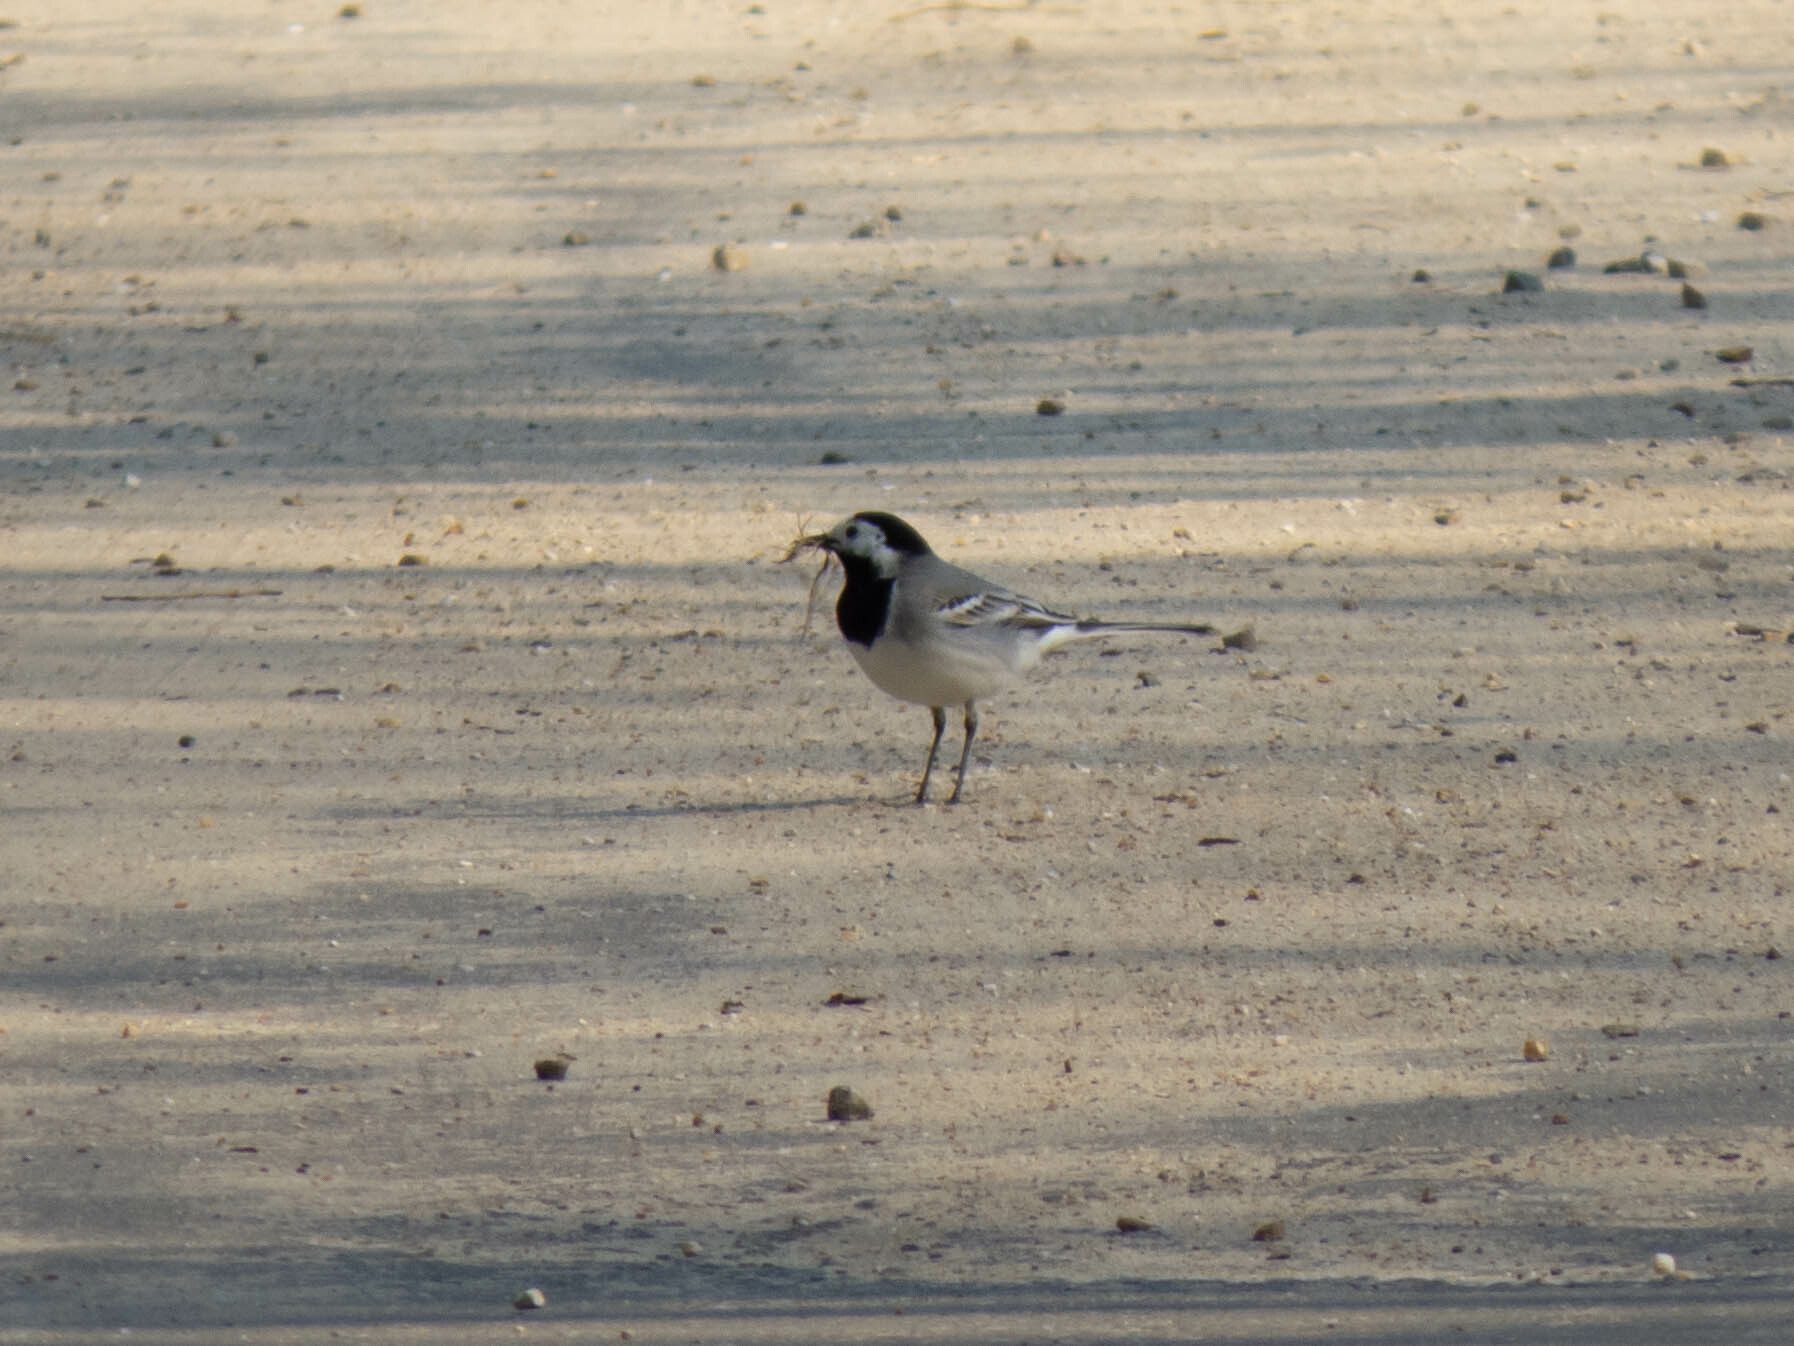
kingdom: Animalia
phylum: Chordata
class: Aves
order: Passeriformes
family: Motacillidae
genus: Motacilla
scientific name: Motacilla alba
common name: White wagtail
